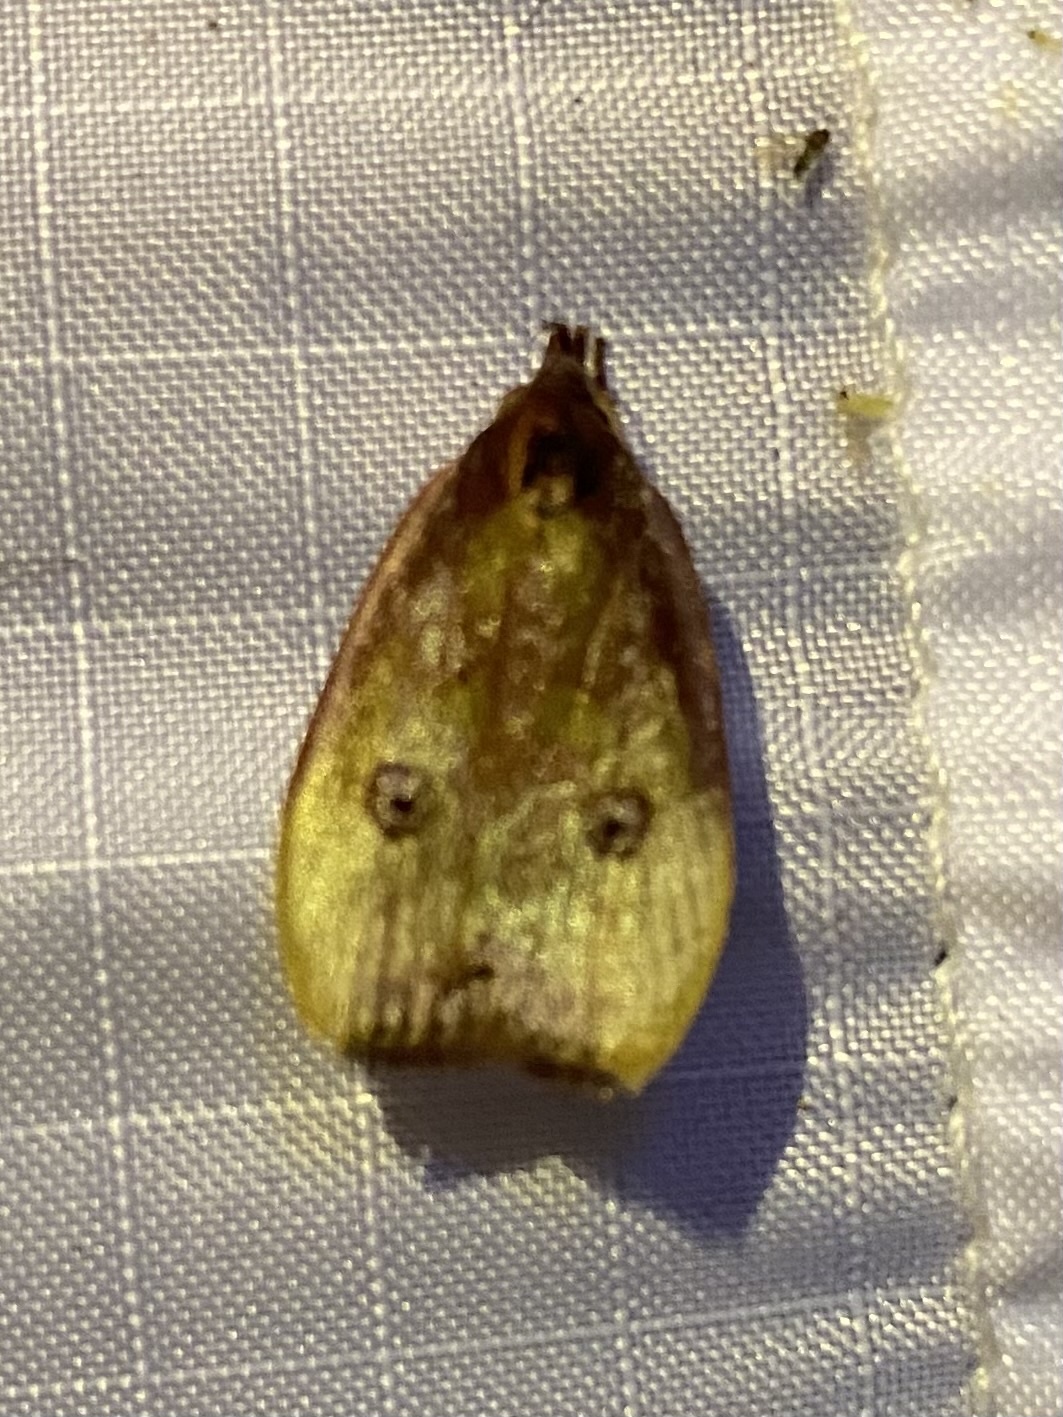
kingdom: Animalia
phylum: Arthropoda
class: Insecta
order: Lepidoptera
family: Depressariidae
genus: Lethata
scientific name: Lethata trochalosticta
